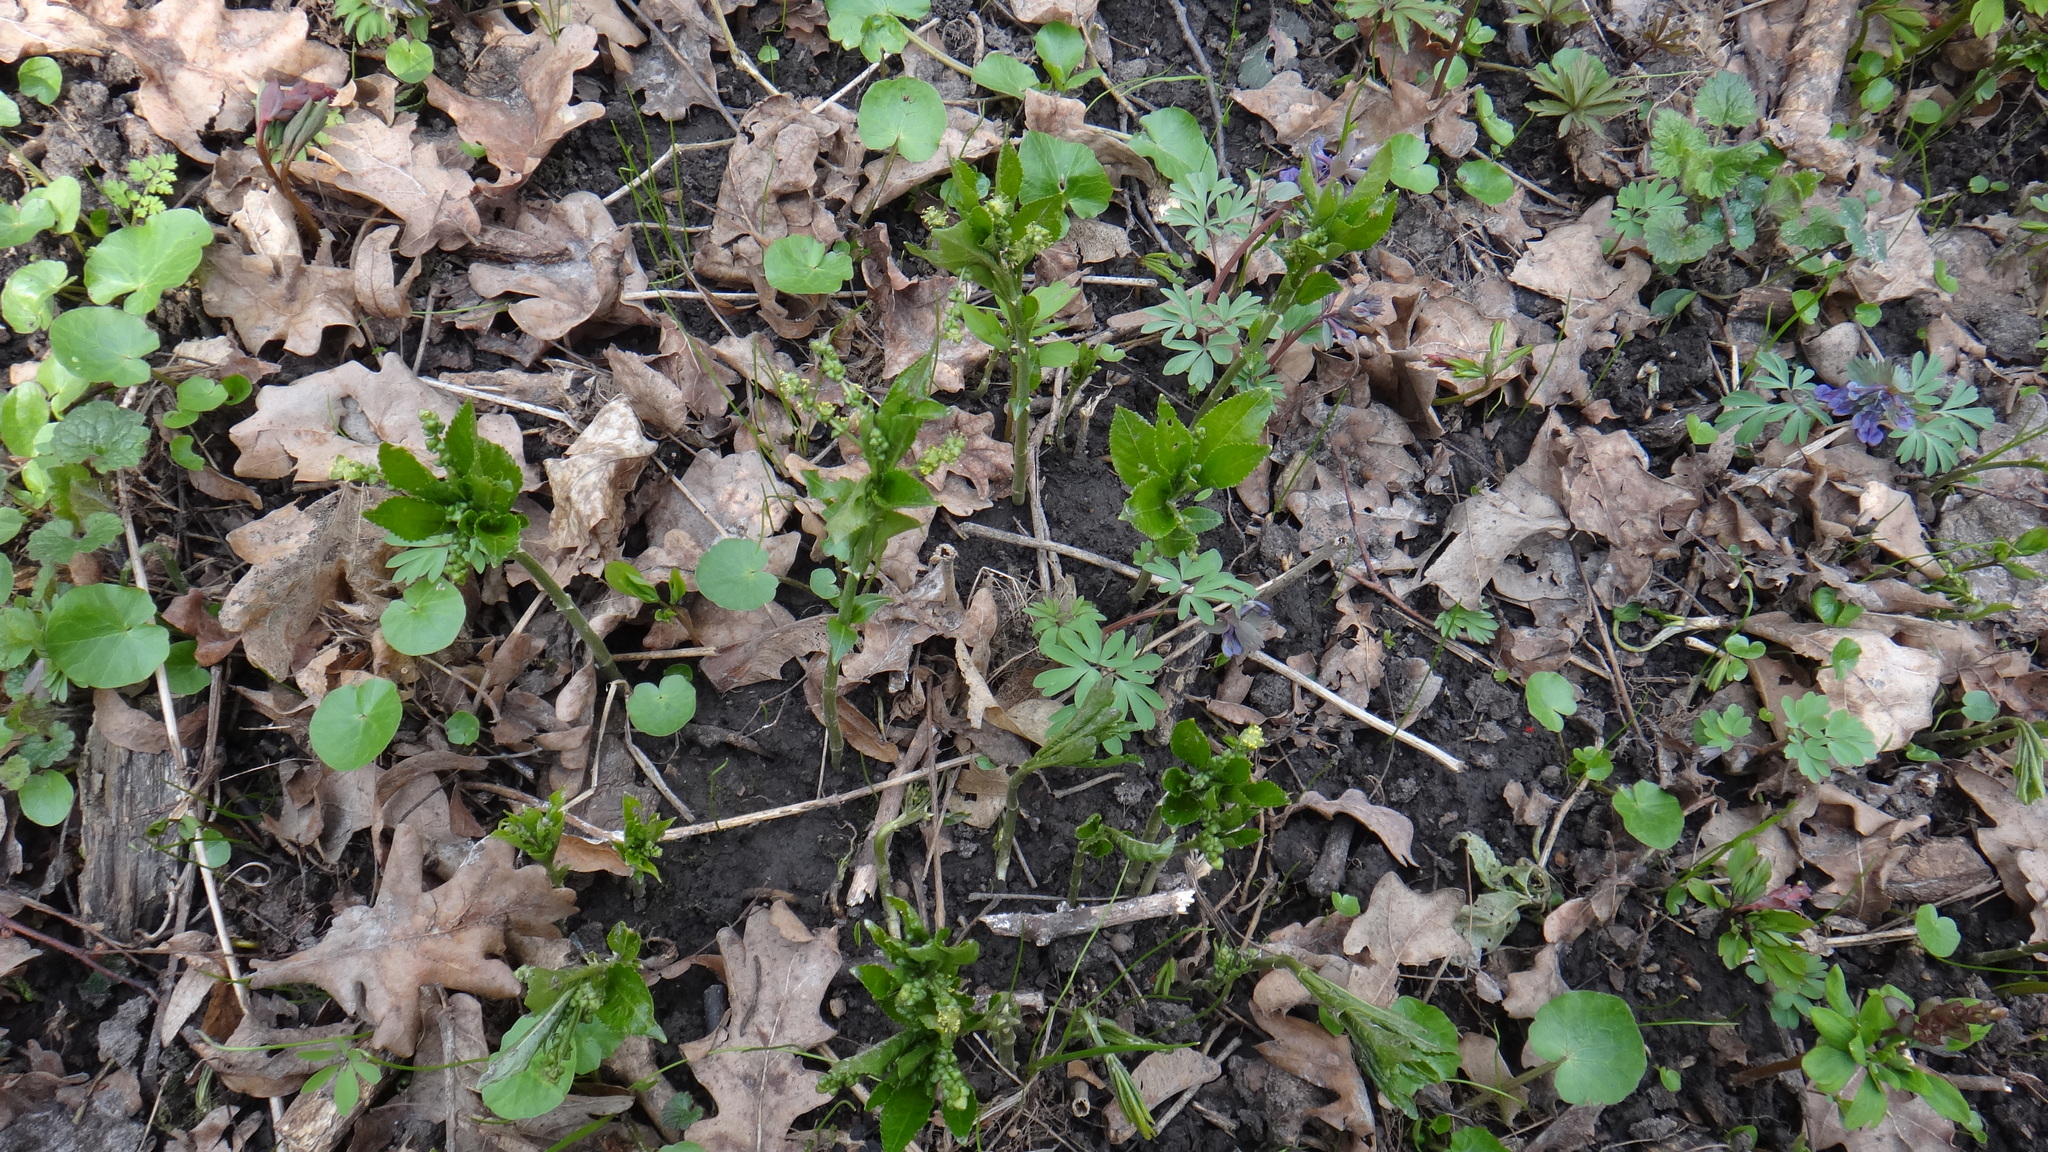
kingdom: Plantae
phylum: Tracheophyta
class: Magnoliopsida
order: Malpighiales
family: Euphorbiaceae
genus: Mercurialis
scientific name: Mercurialis perennis
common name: Dog mercury
